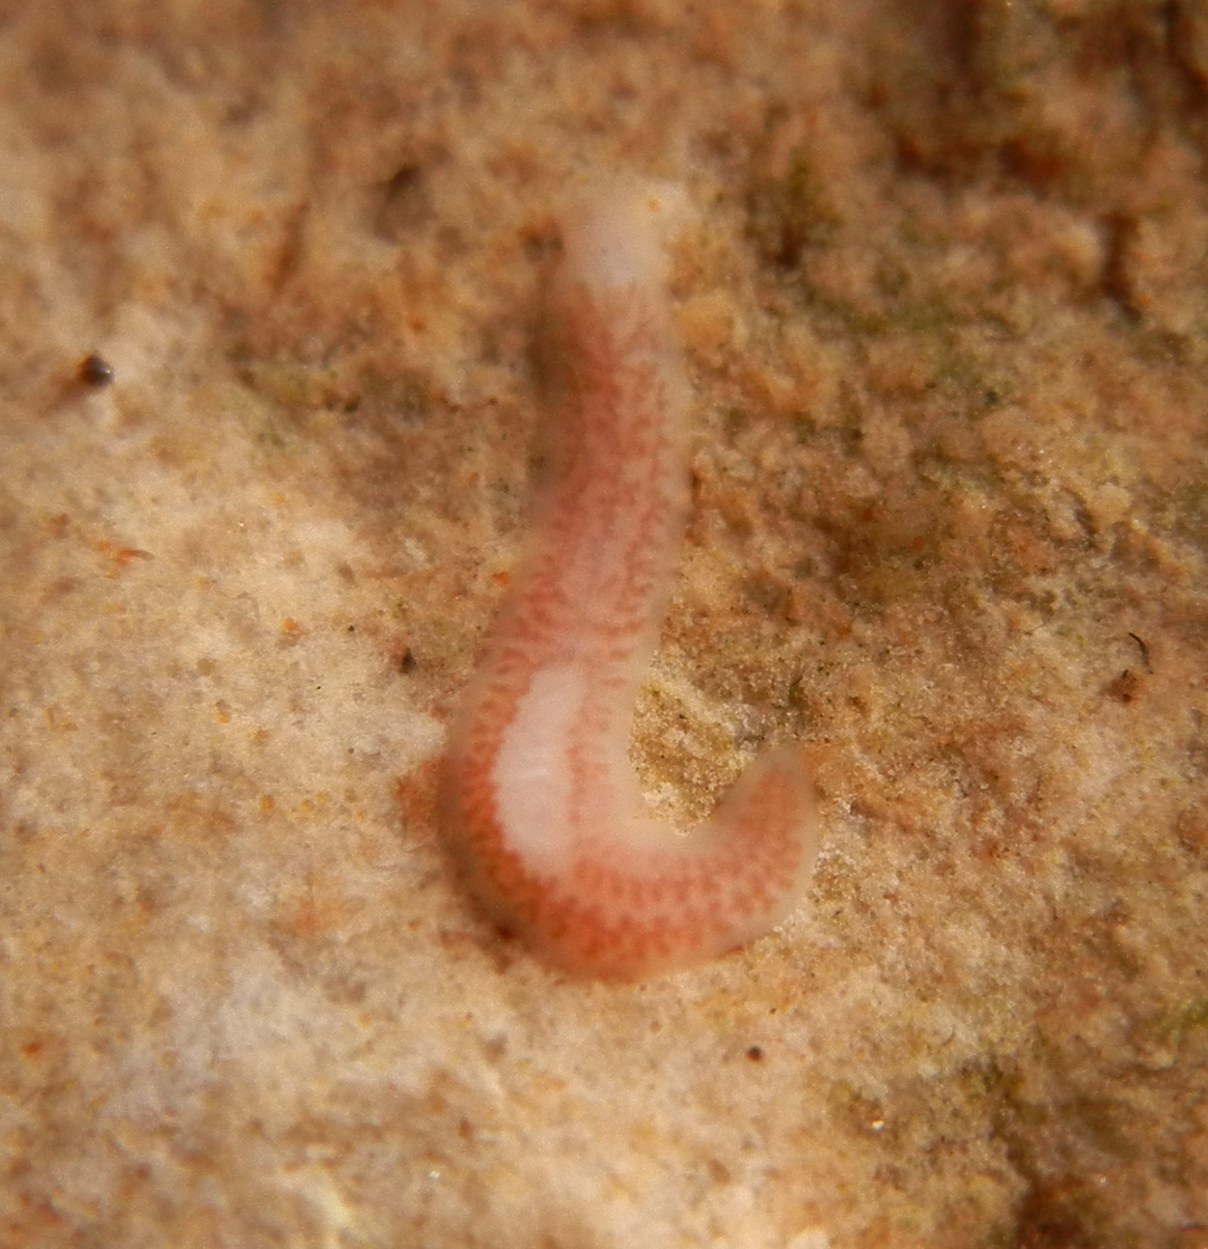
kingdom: Animalia
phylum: Platyhelminthes
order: Tricladida
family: Dendrocoelidae
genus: Dendrocoelum
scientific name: Dendrocoelum lacteum
